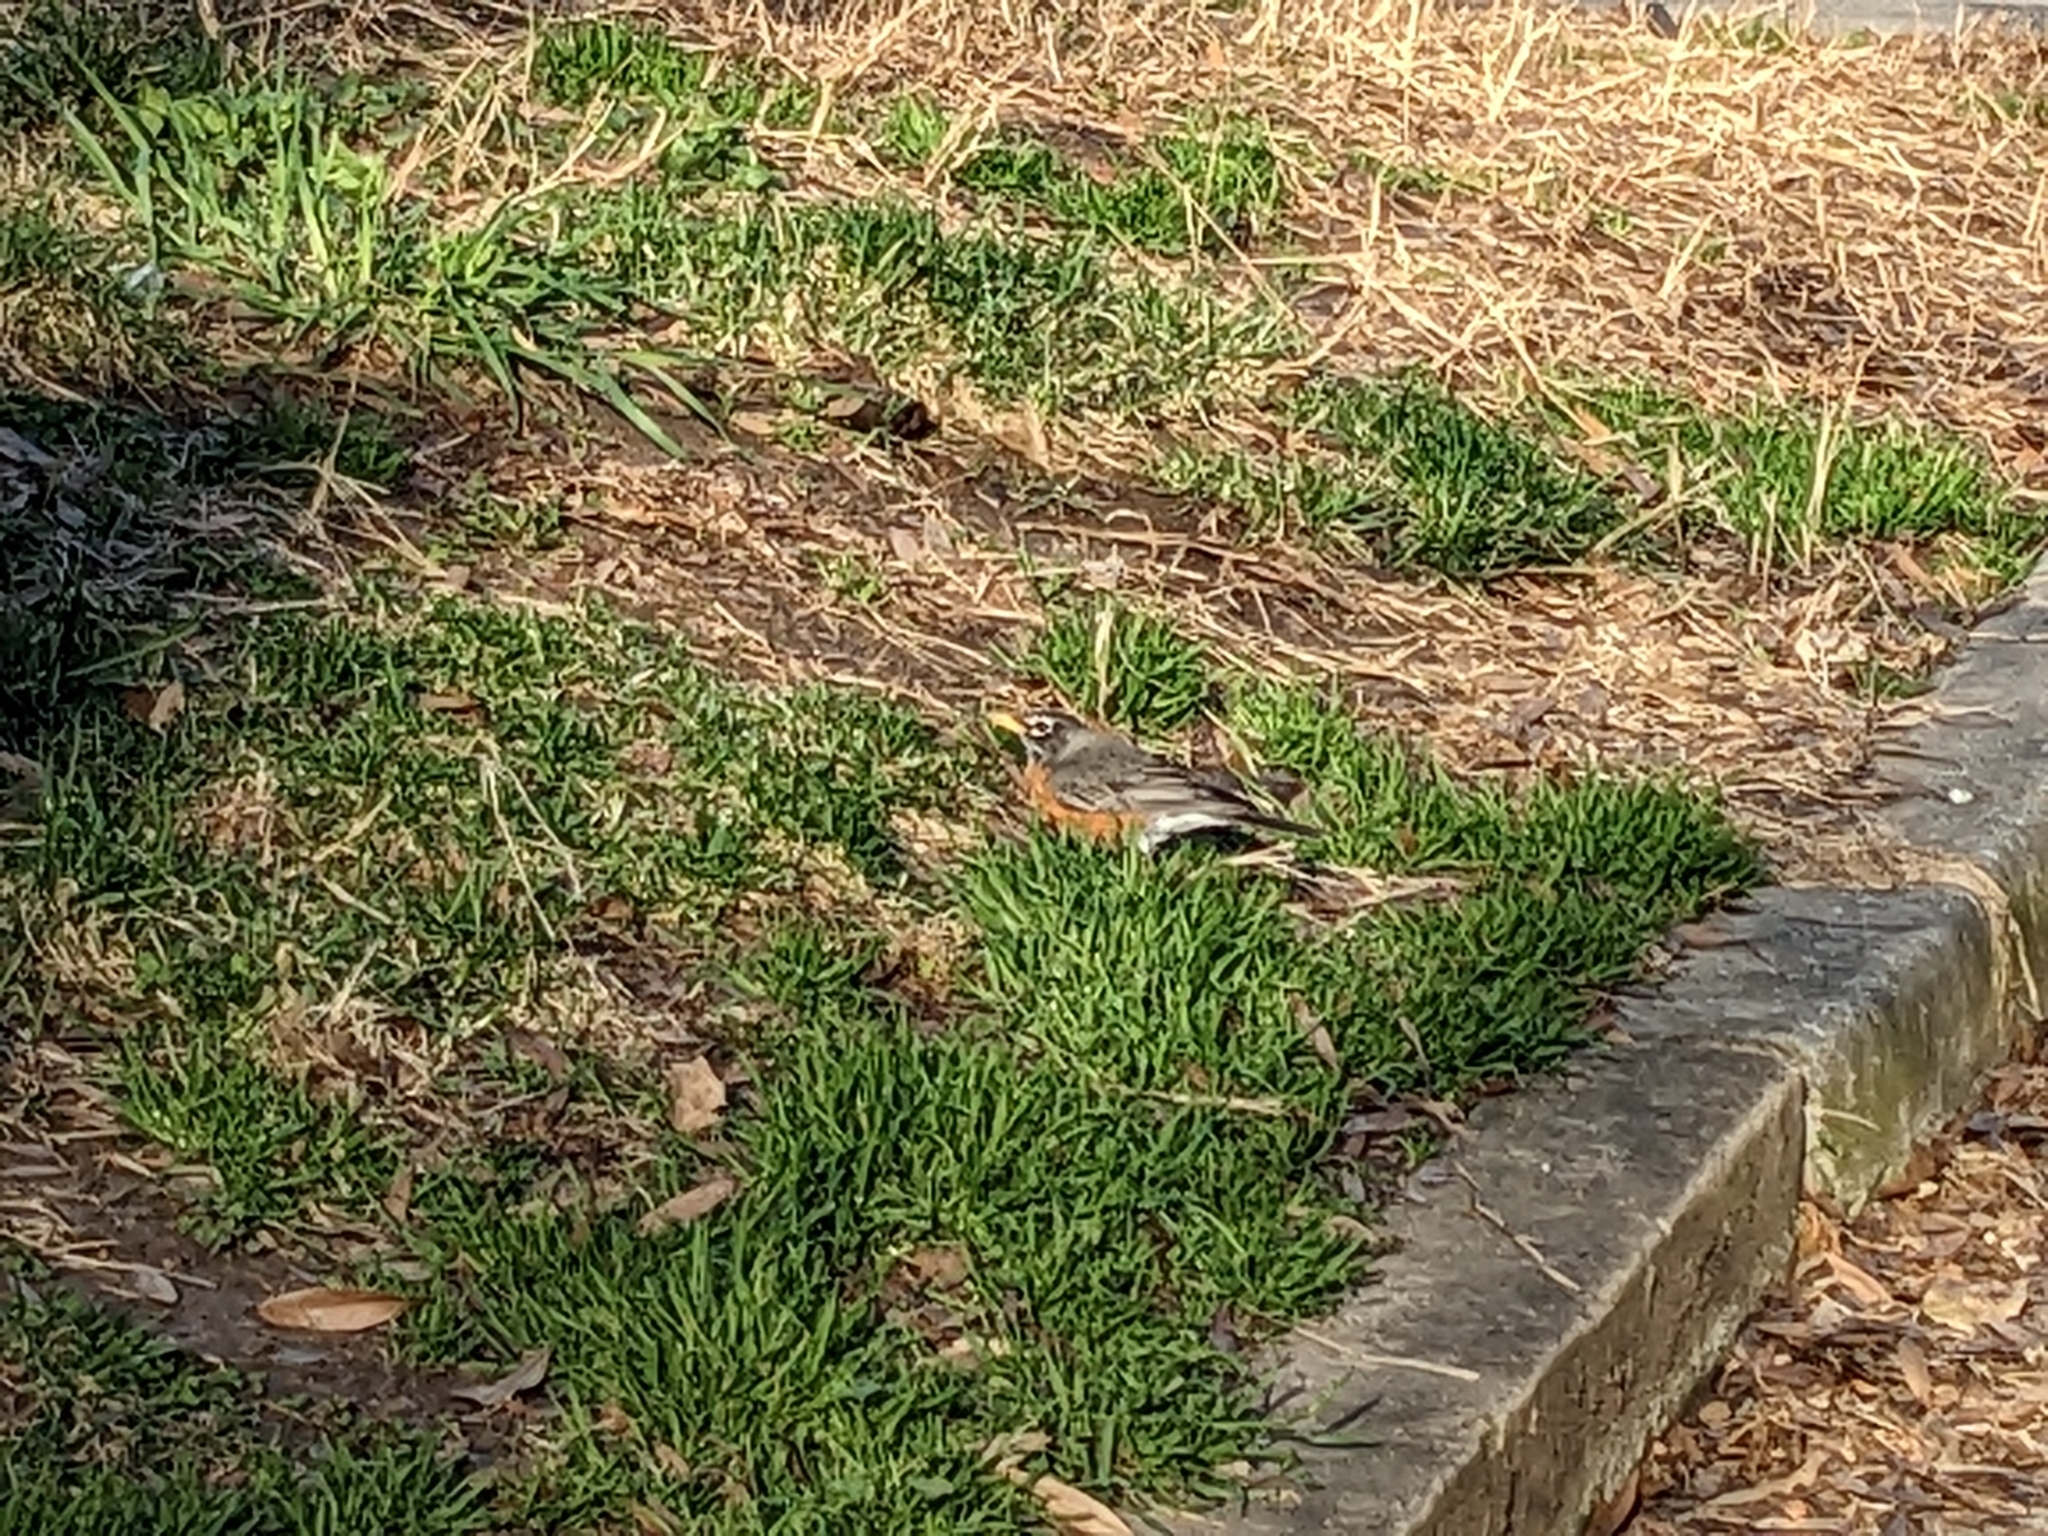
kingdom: Animalia
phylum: Chordata
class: Aves
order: Passeriformes
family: Turdidae
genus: Turdus
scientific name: Turdus migratorius
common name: American robin
